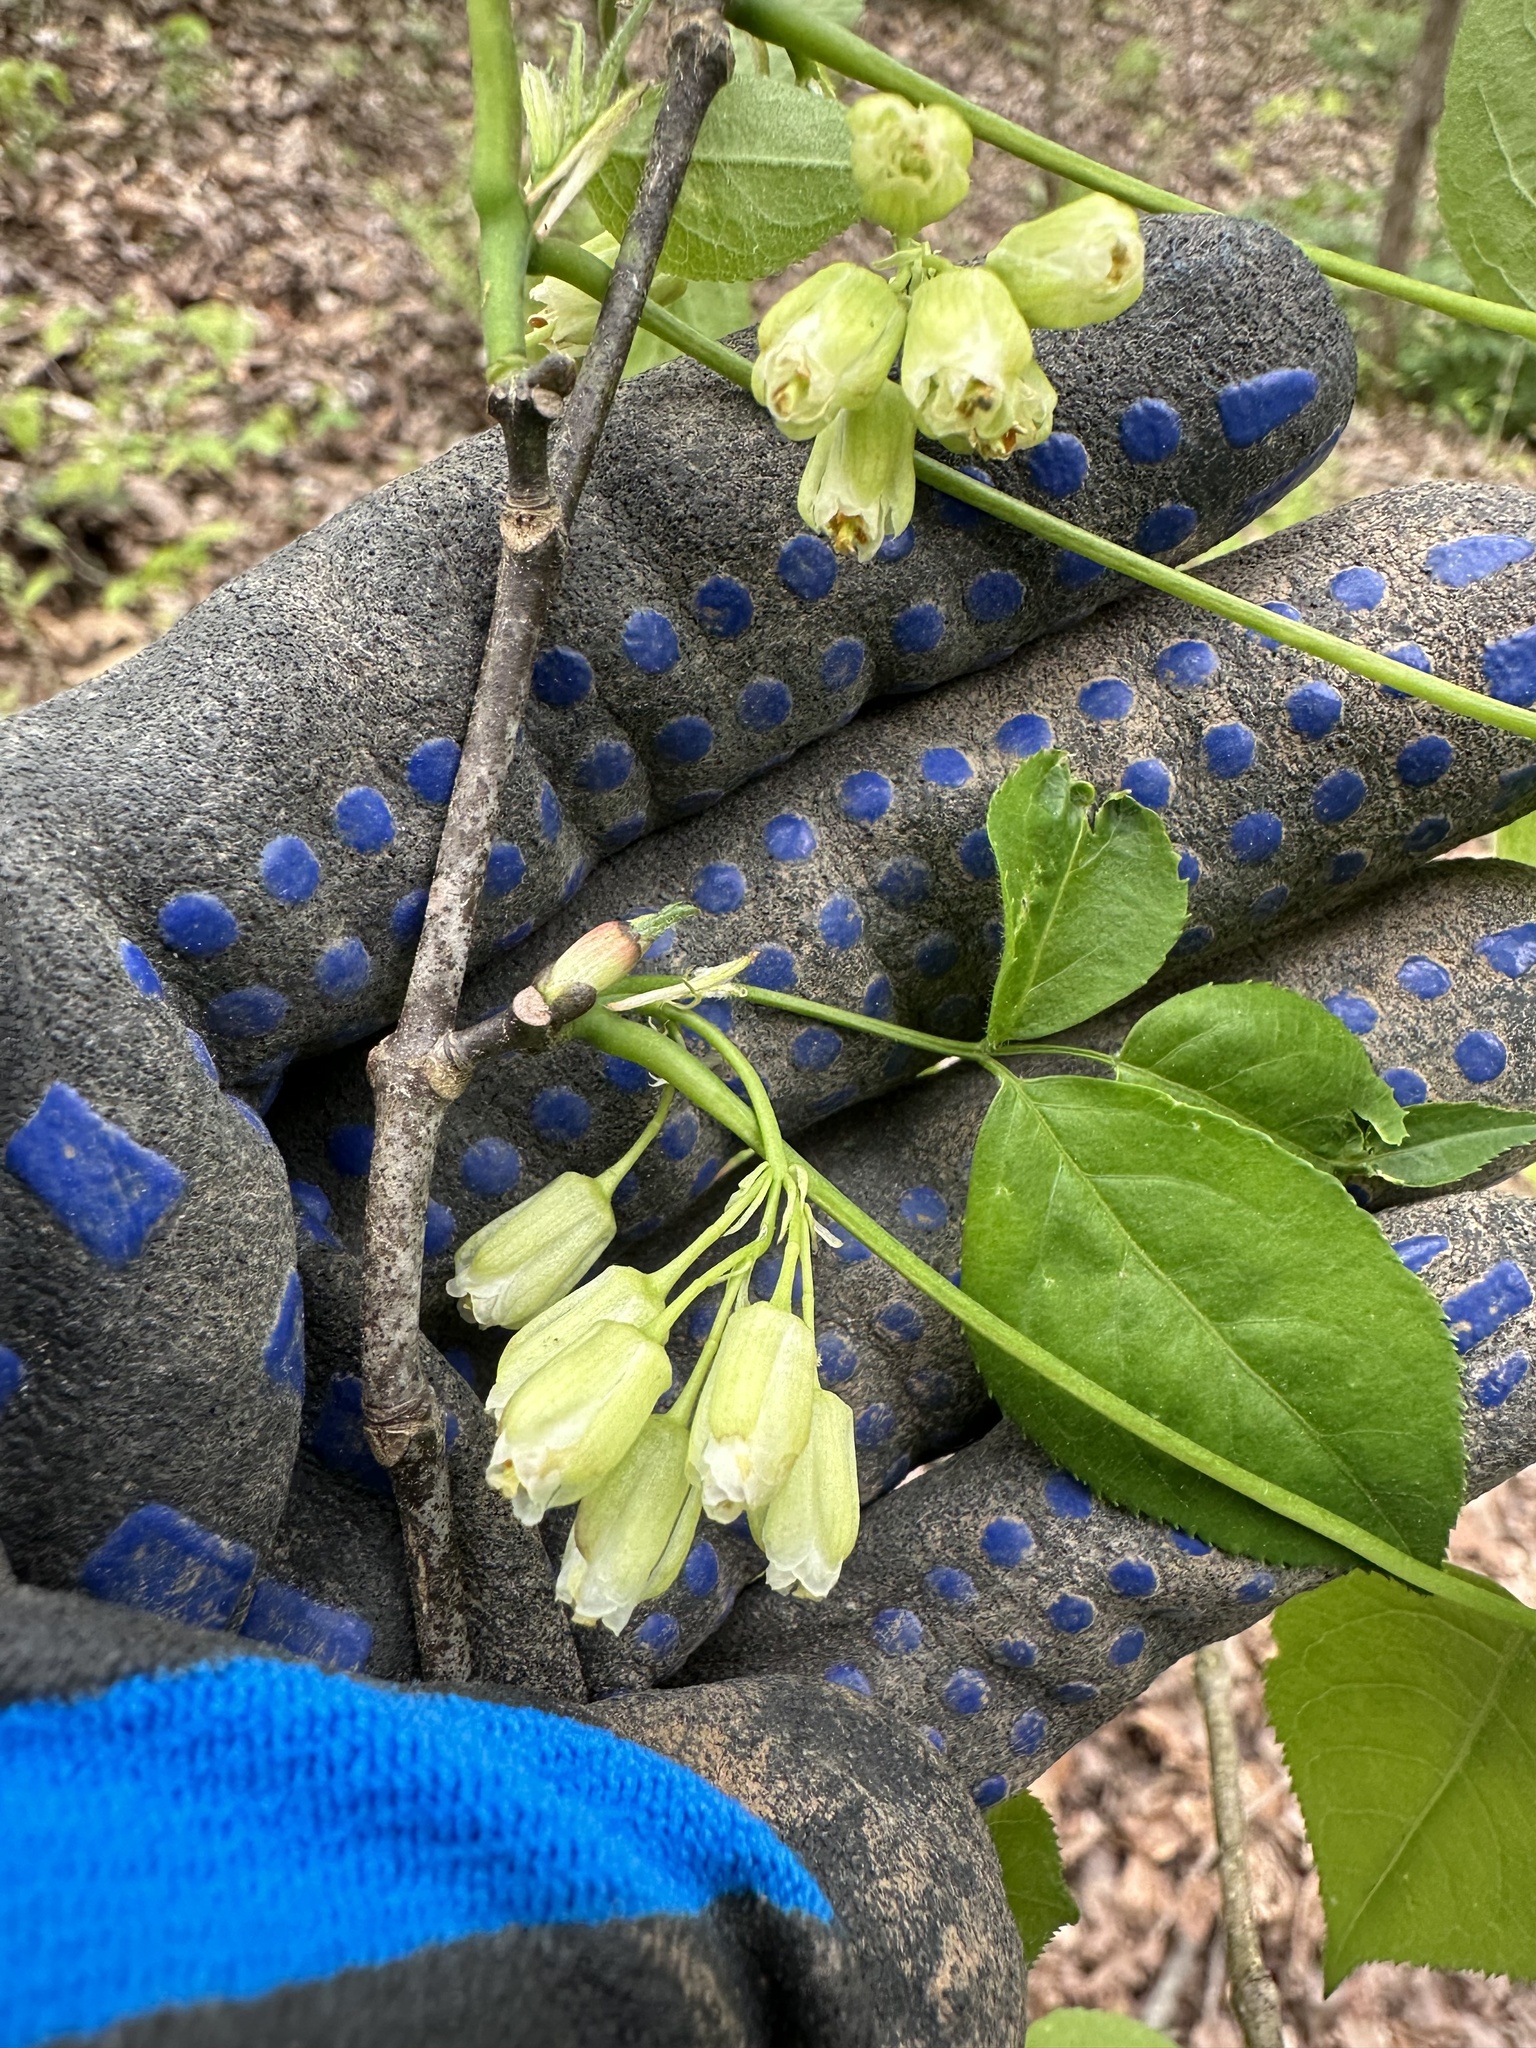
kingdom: Plantae
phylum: Tracheophyta
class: Magnoliopsida
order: Crossosomatales
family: Staphyleaceae
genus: Staphylea
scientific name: Staphylea trifolia
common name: American bladdernut
